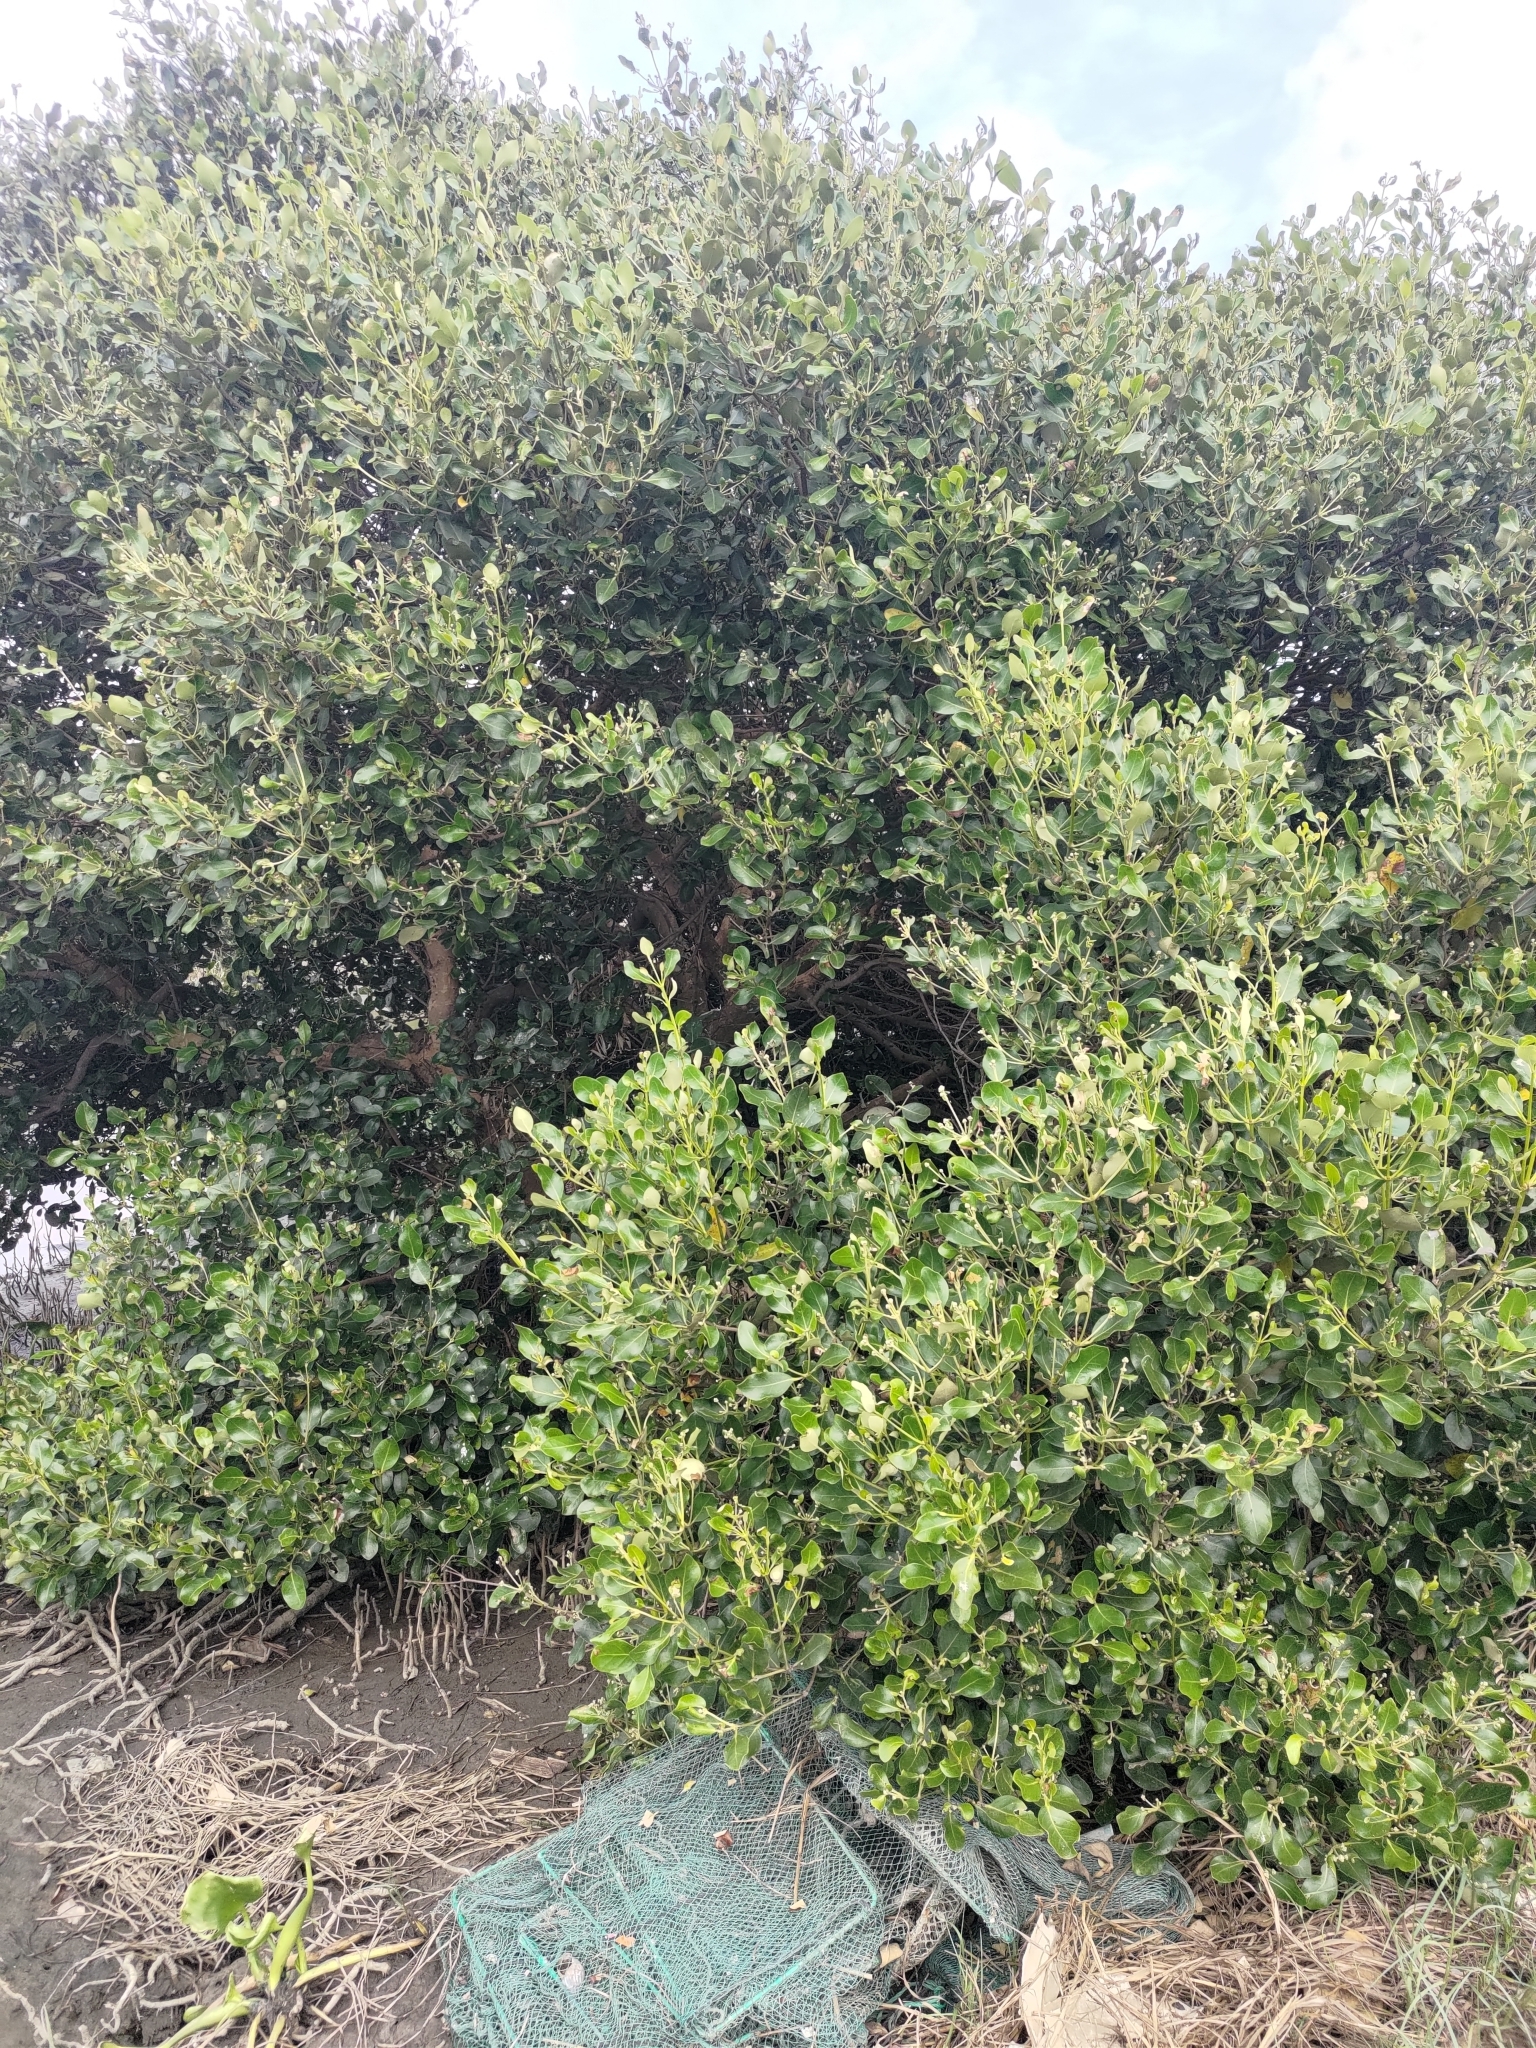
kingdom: Plantae
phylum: Tracheophyta
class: Magnoliopsida
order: Lamiales
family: Acanthaceae
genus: Avicennia
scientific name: Avicennia marina
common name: Gray mangrove
